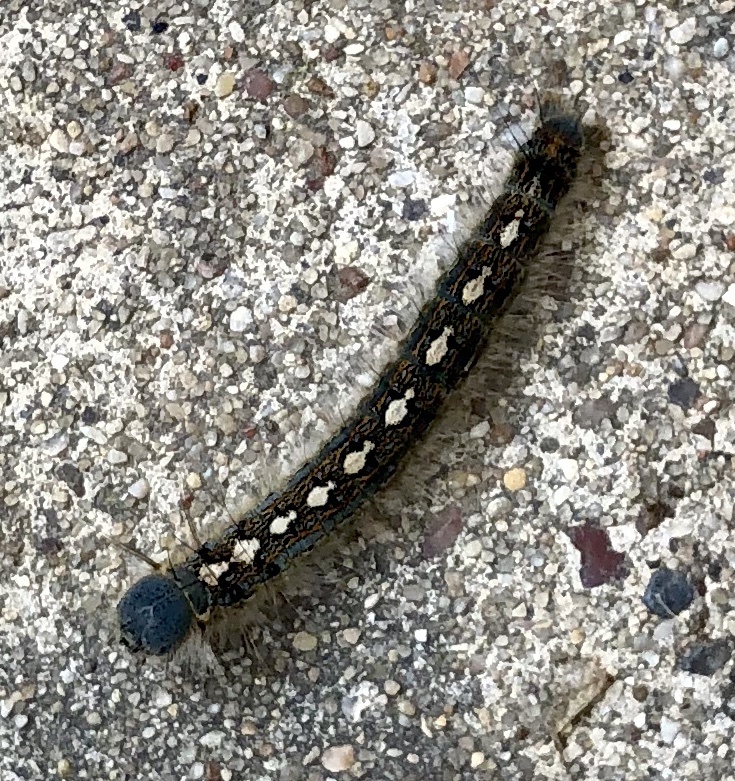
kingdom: Animalia
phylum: Arthropoda
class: Insecta
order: Lepidoptera
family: Lasiocampidae
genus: Malacosoma
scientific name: Malacosoma disstria
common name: Forest tent caterpillar
